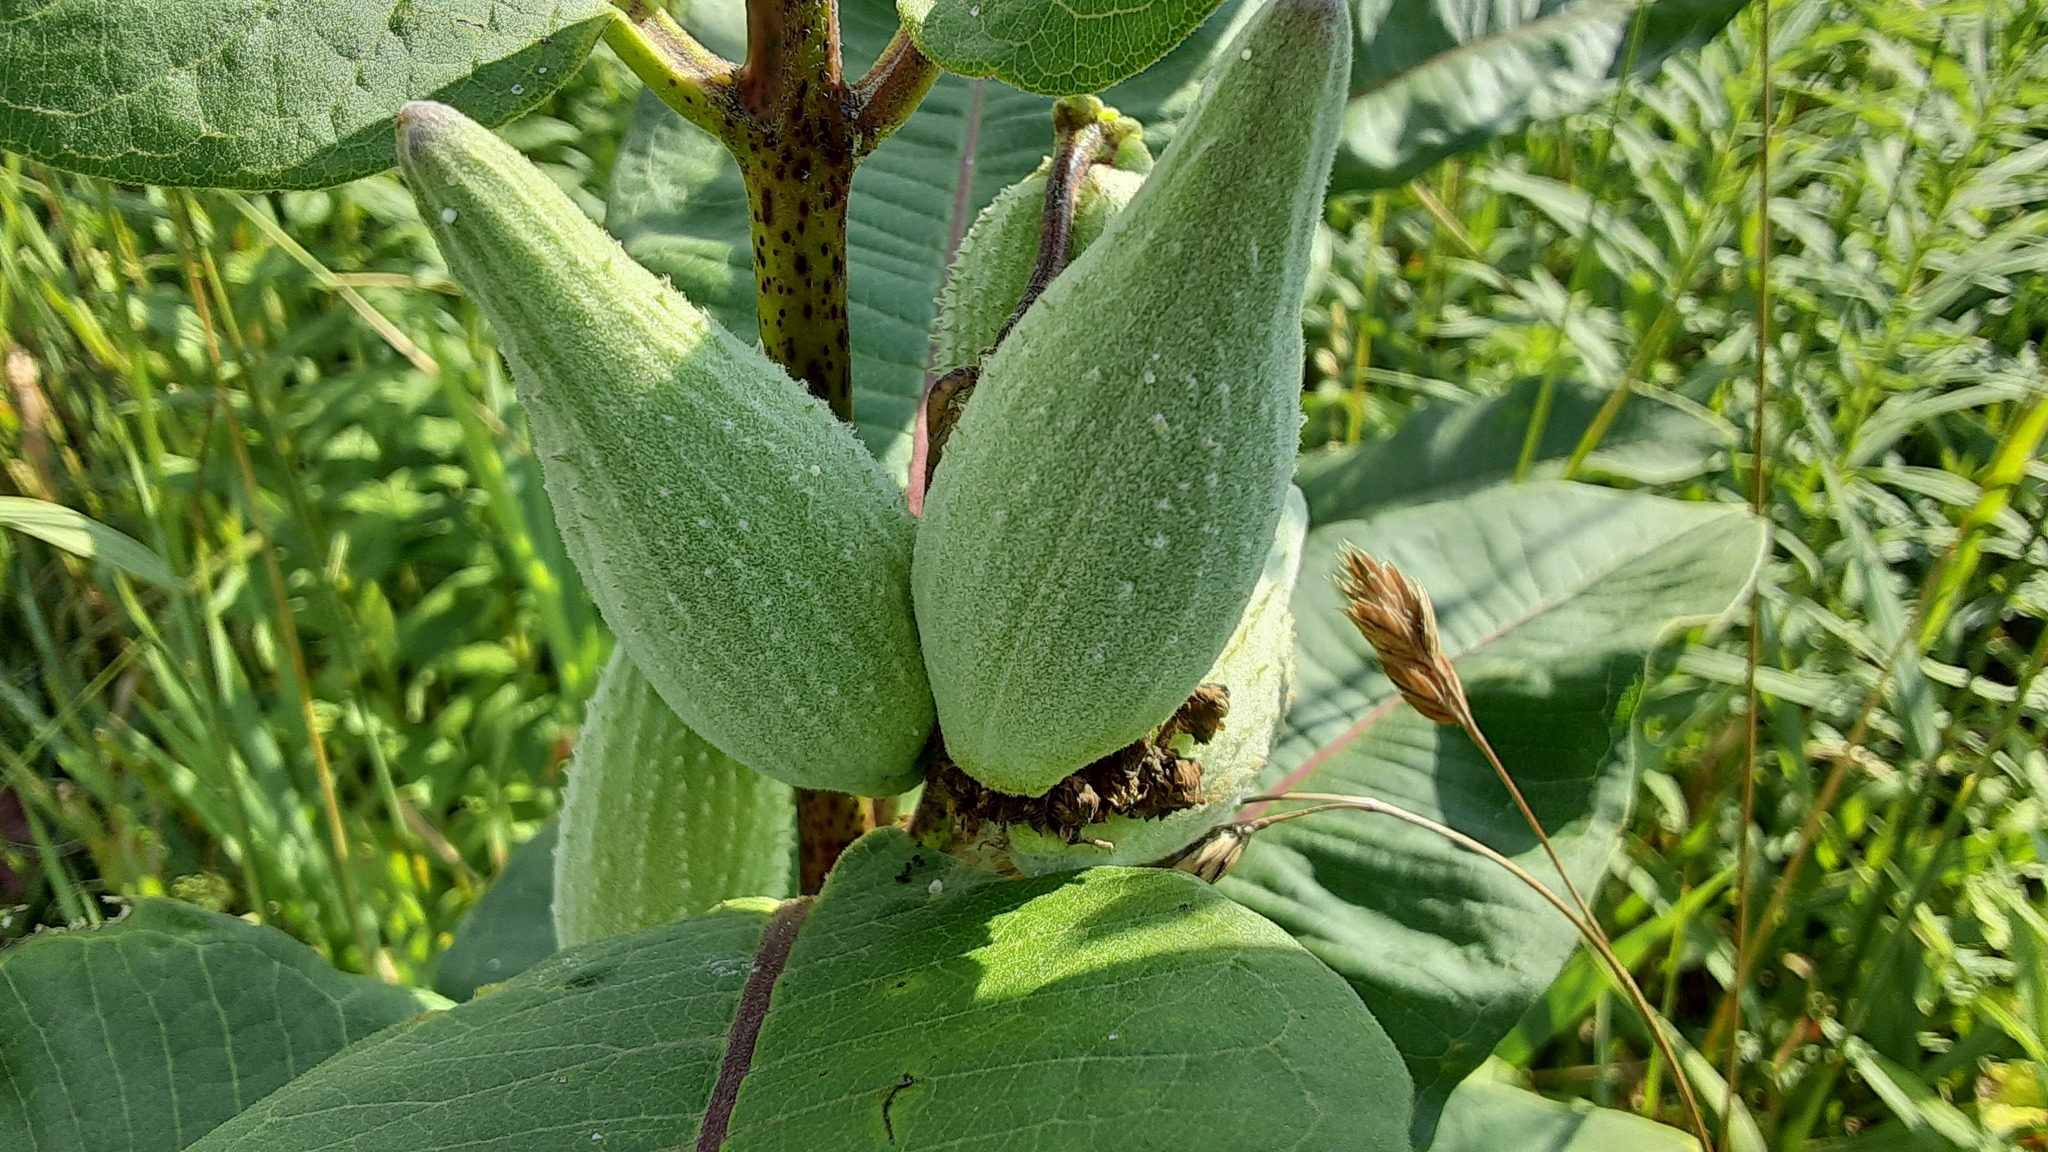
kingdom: Plantae
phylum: Tracheophyta
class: Magnoliopsida
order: Gentianales
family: Apocynaceae
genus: Asclepias
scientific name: Asclepias syriaca
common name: Common milkweed
